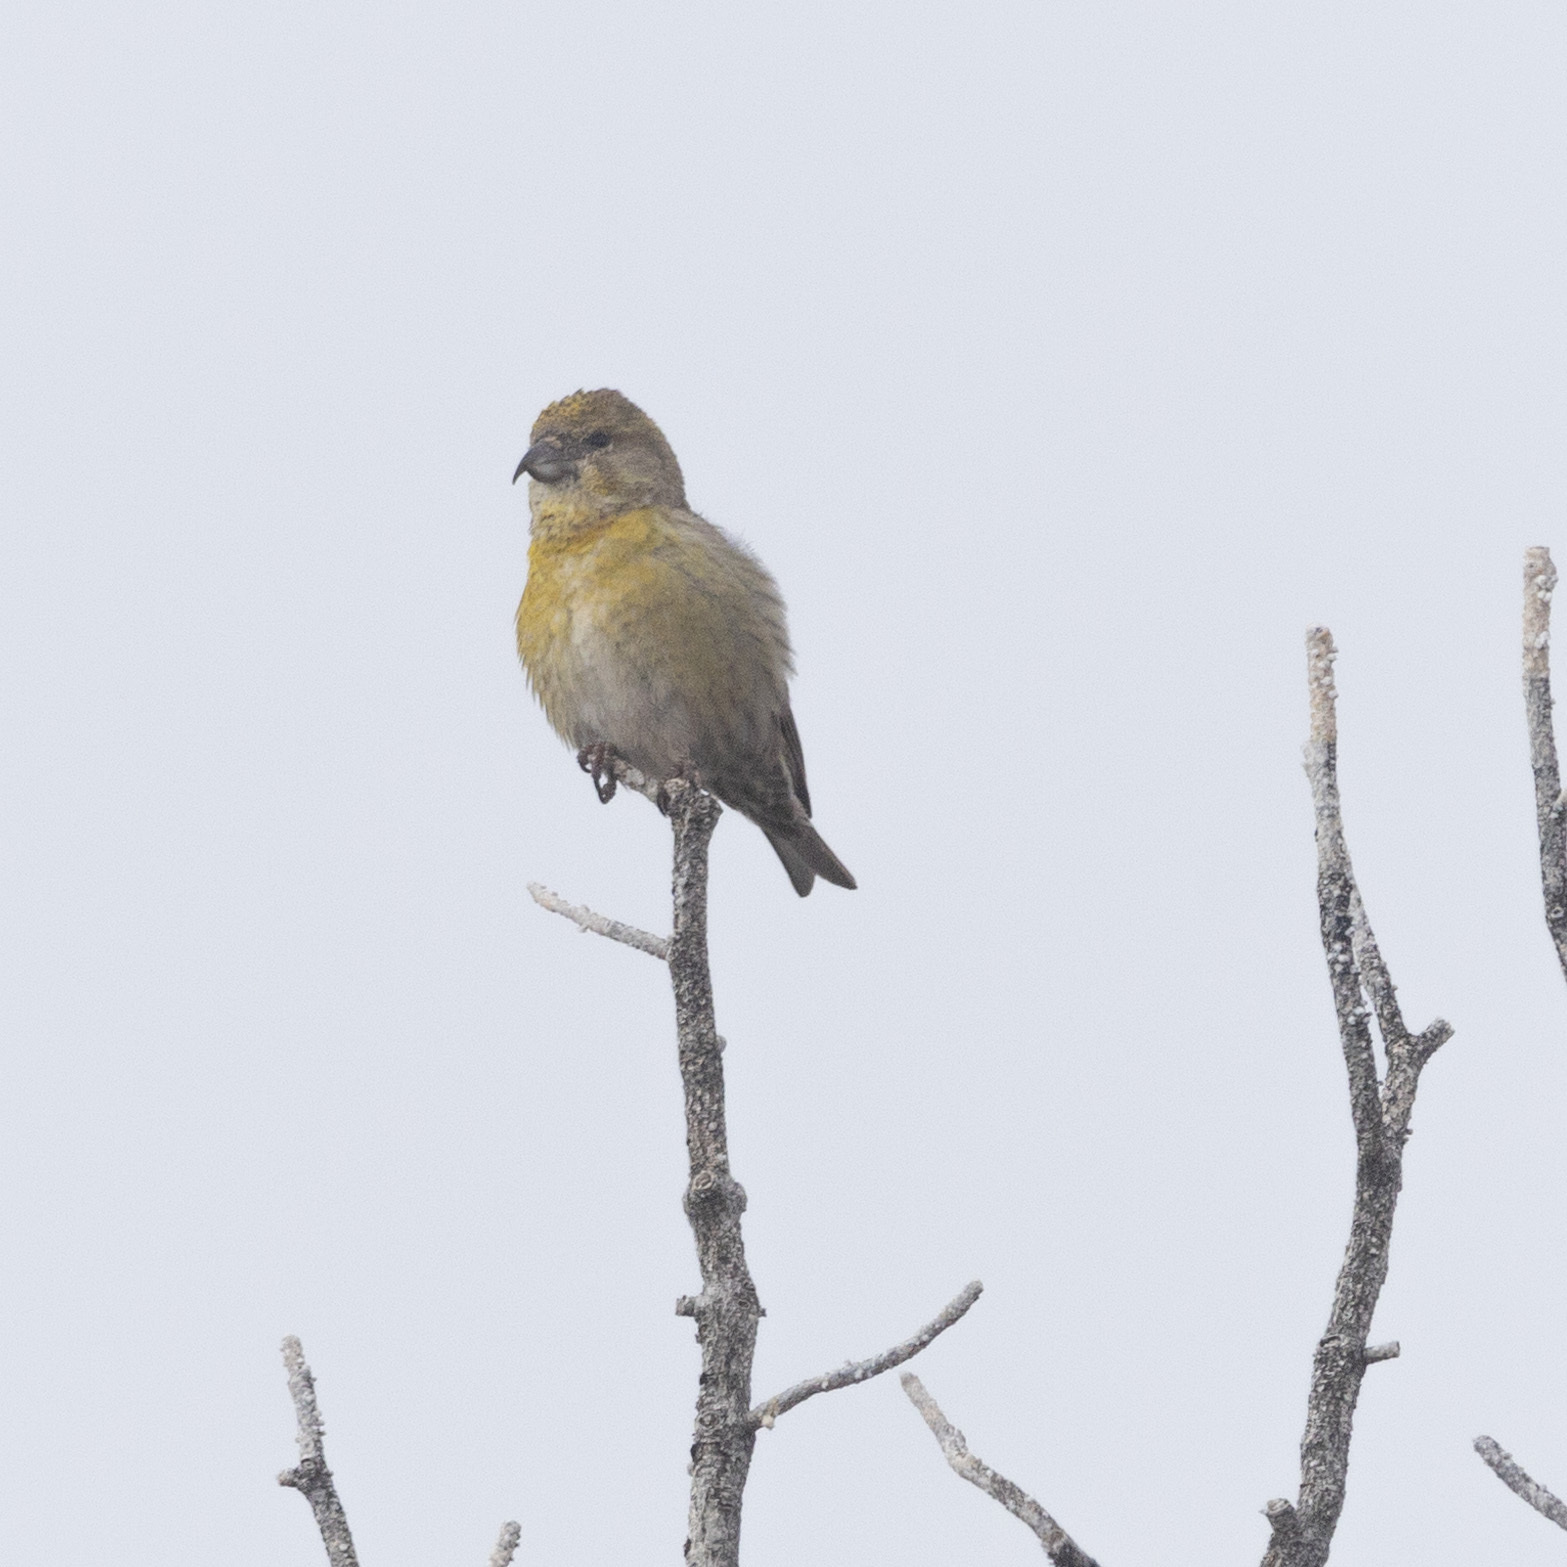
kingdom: Animalia
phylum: Chordata
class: Aves
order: Passeriformes
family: Fringillidae
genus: Loxia
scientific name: Loxia curvirostra
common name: Red crossbill
